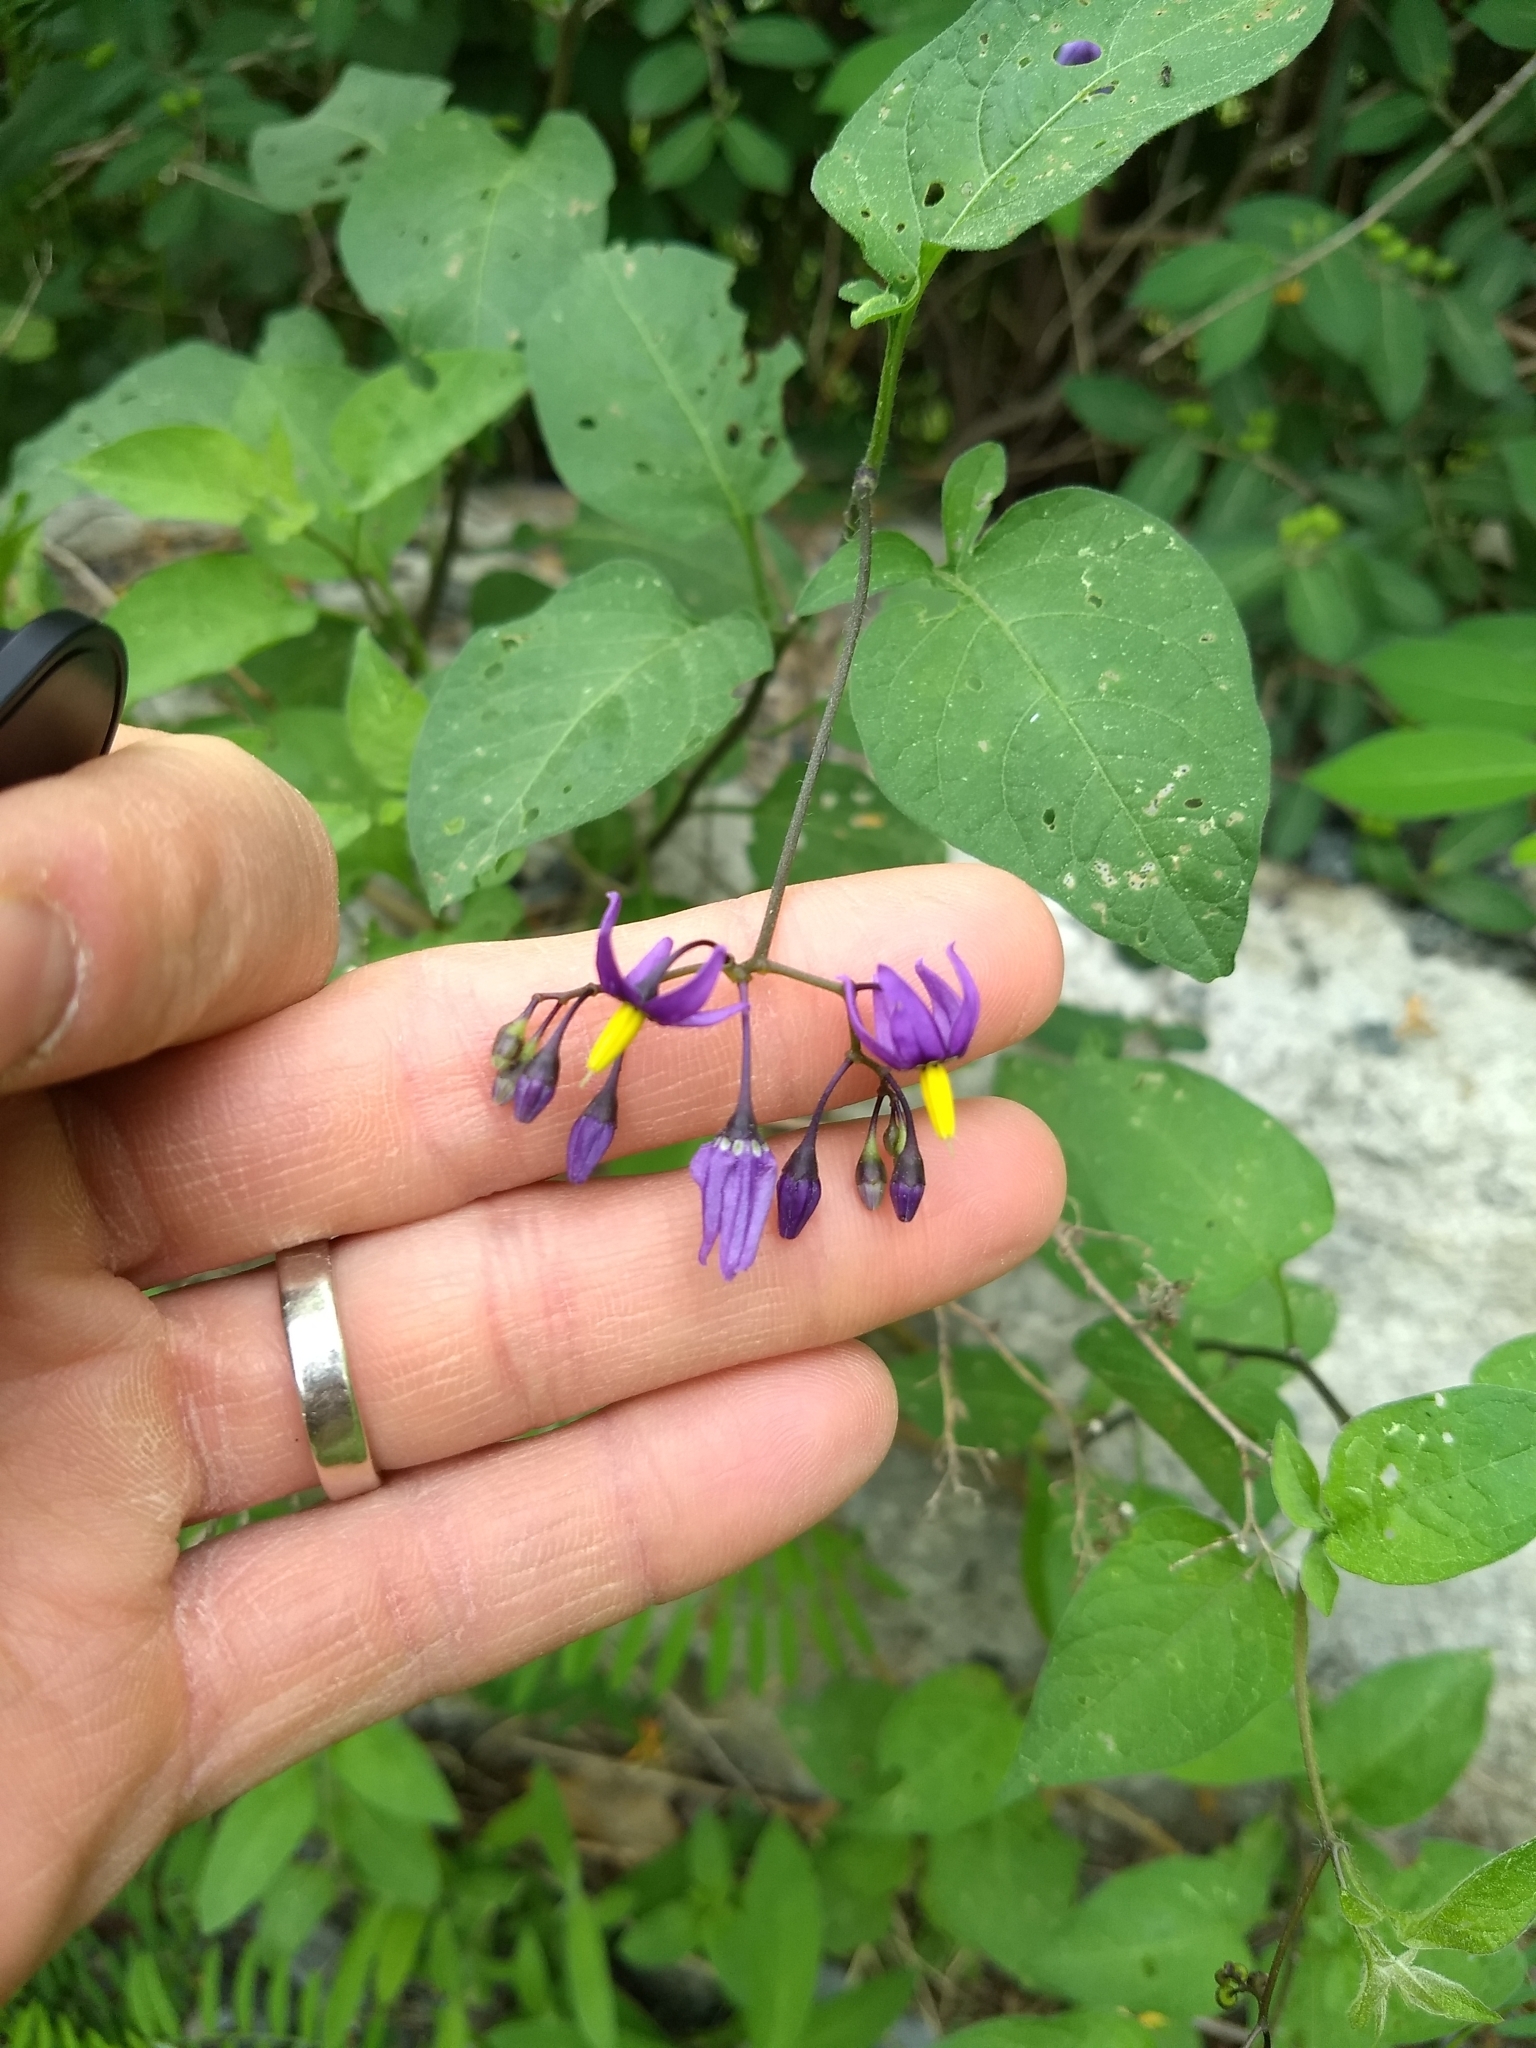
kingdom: Plantae
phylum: Tracheophyta
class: Magnoliopsida
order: Solanales
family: Solanaceae
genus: Solanum
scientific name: Solanum dulcamara
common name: Climbing nightshade
